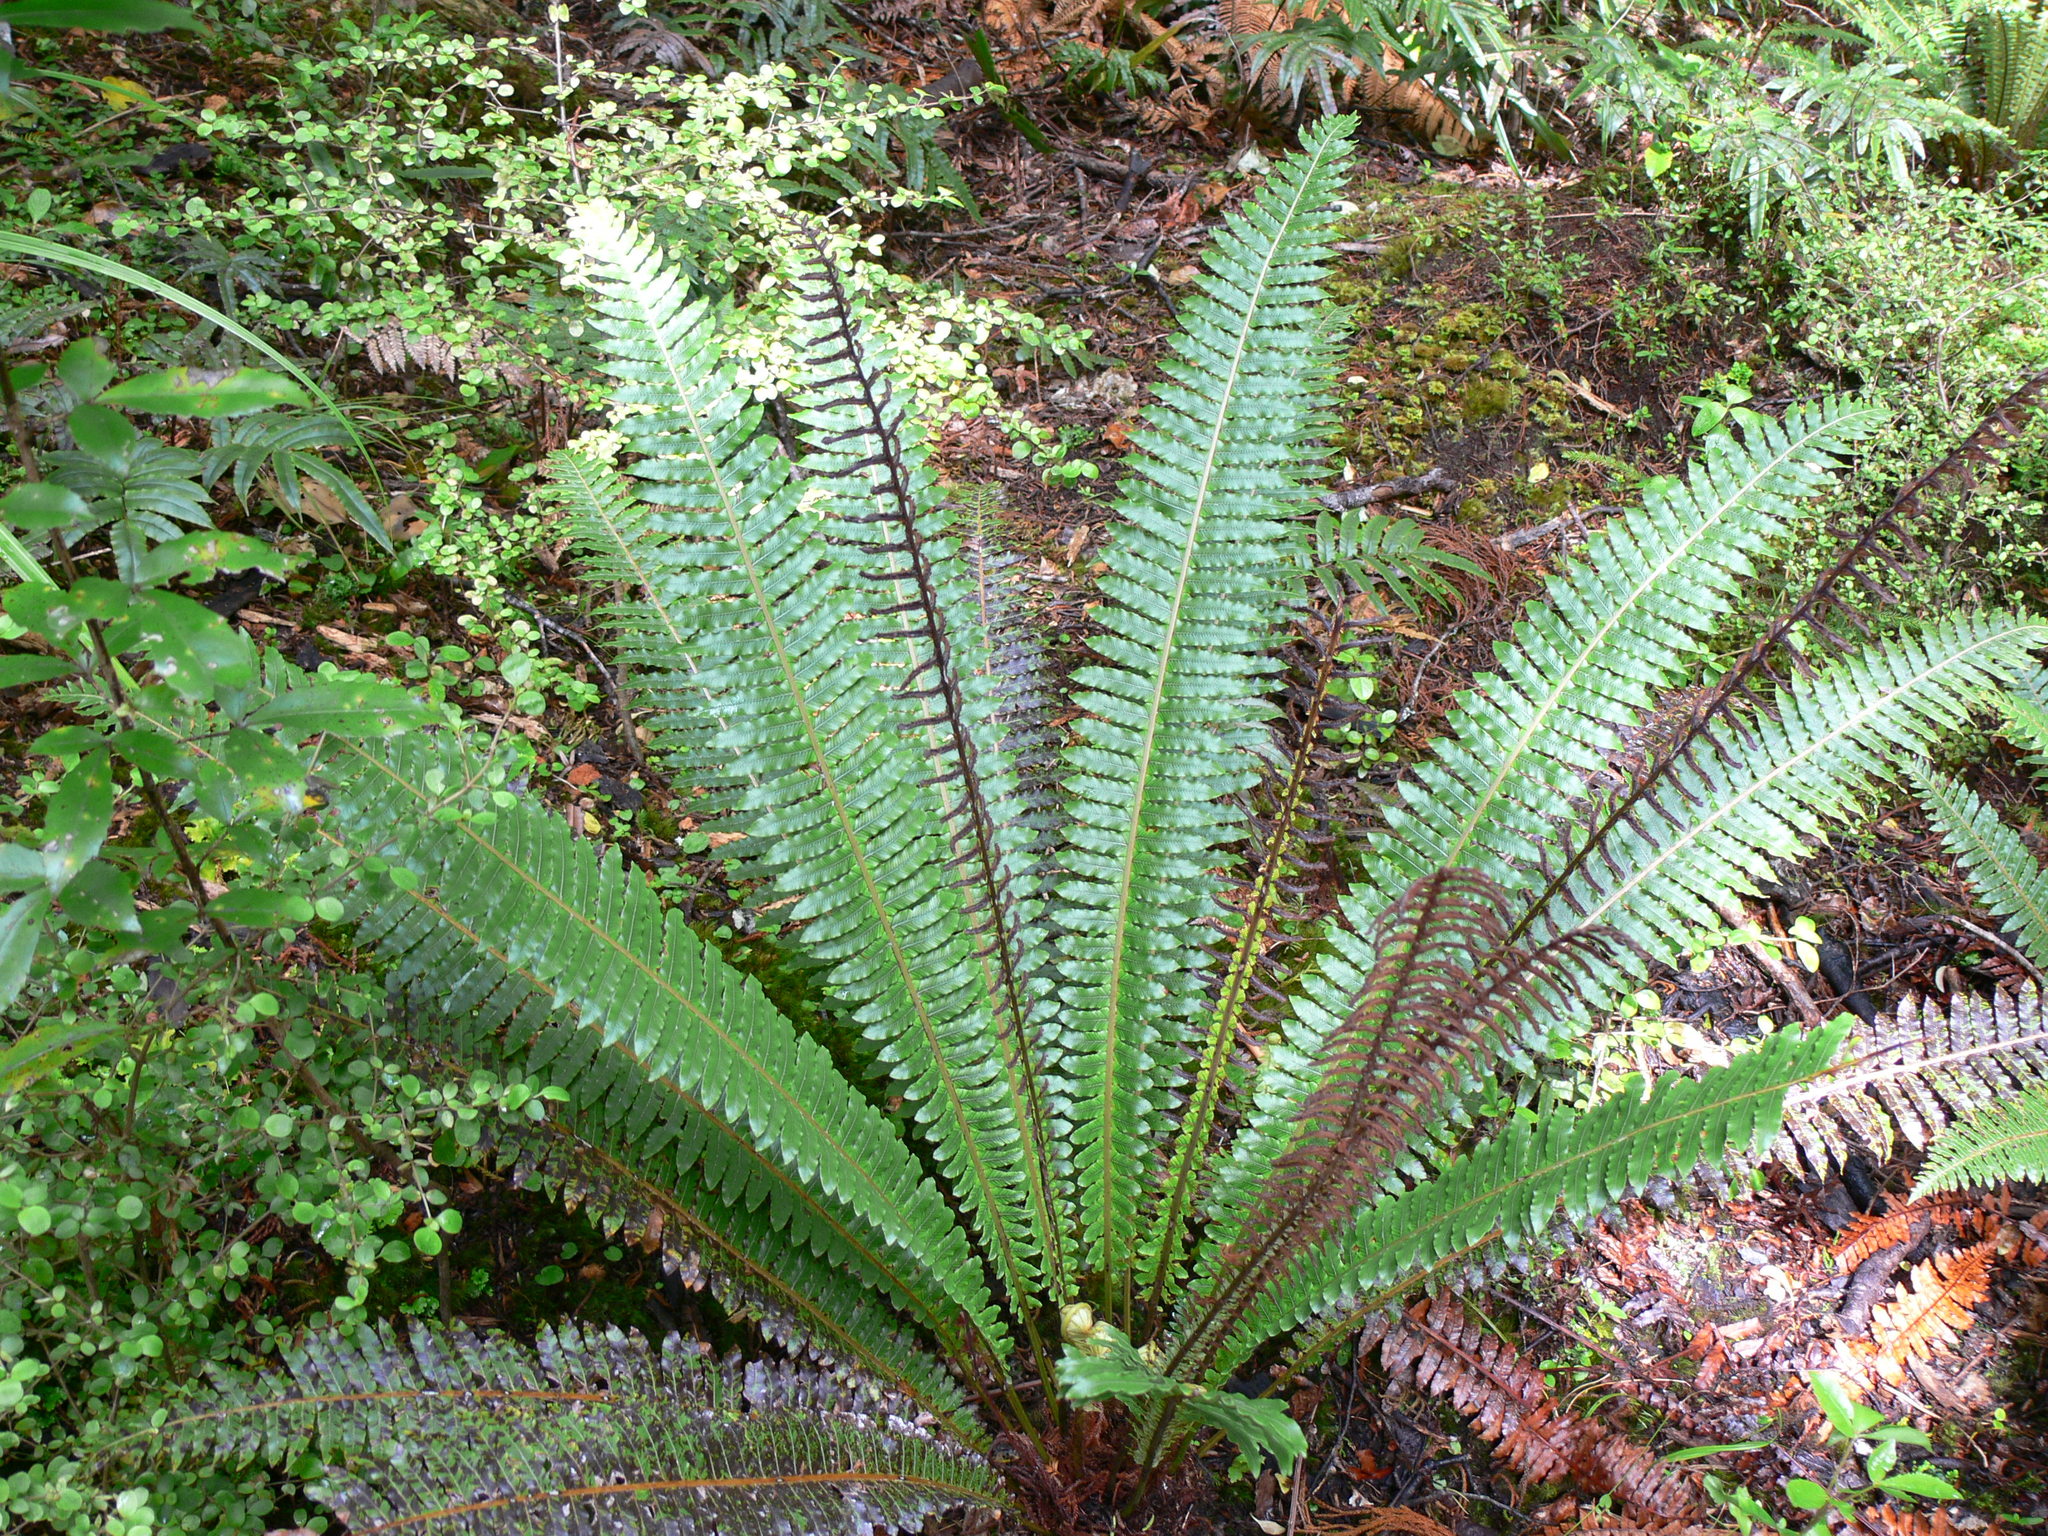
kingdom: Plantae
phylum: Tracheophyta
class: Polypodiopsida
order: Polypodiales
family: Blechnaceae
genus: Lomaria
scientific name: Lomaria discolor
